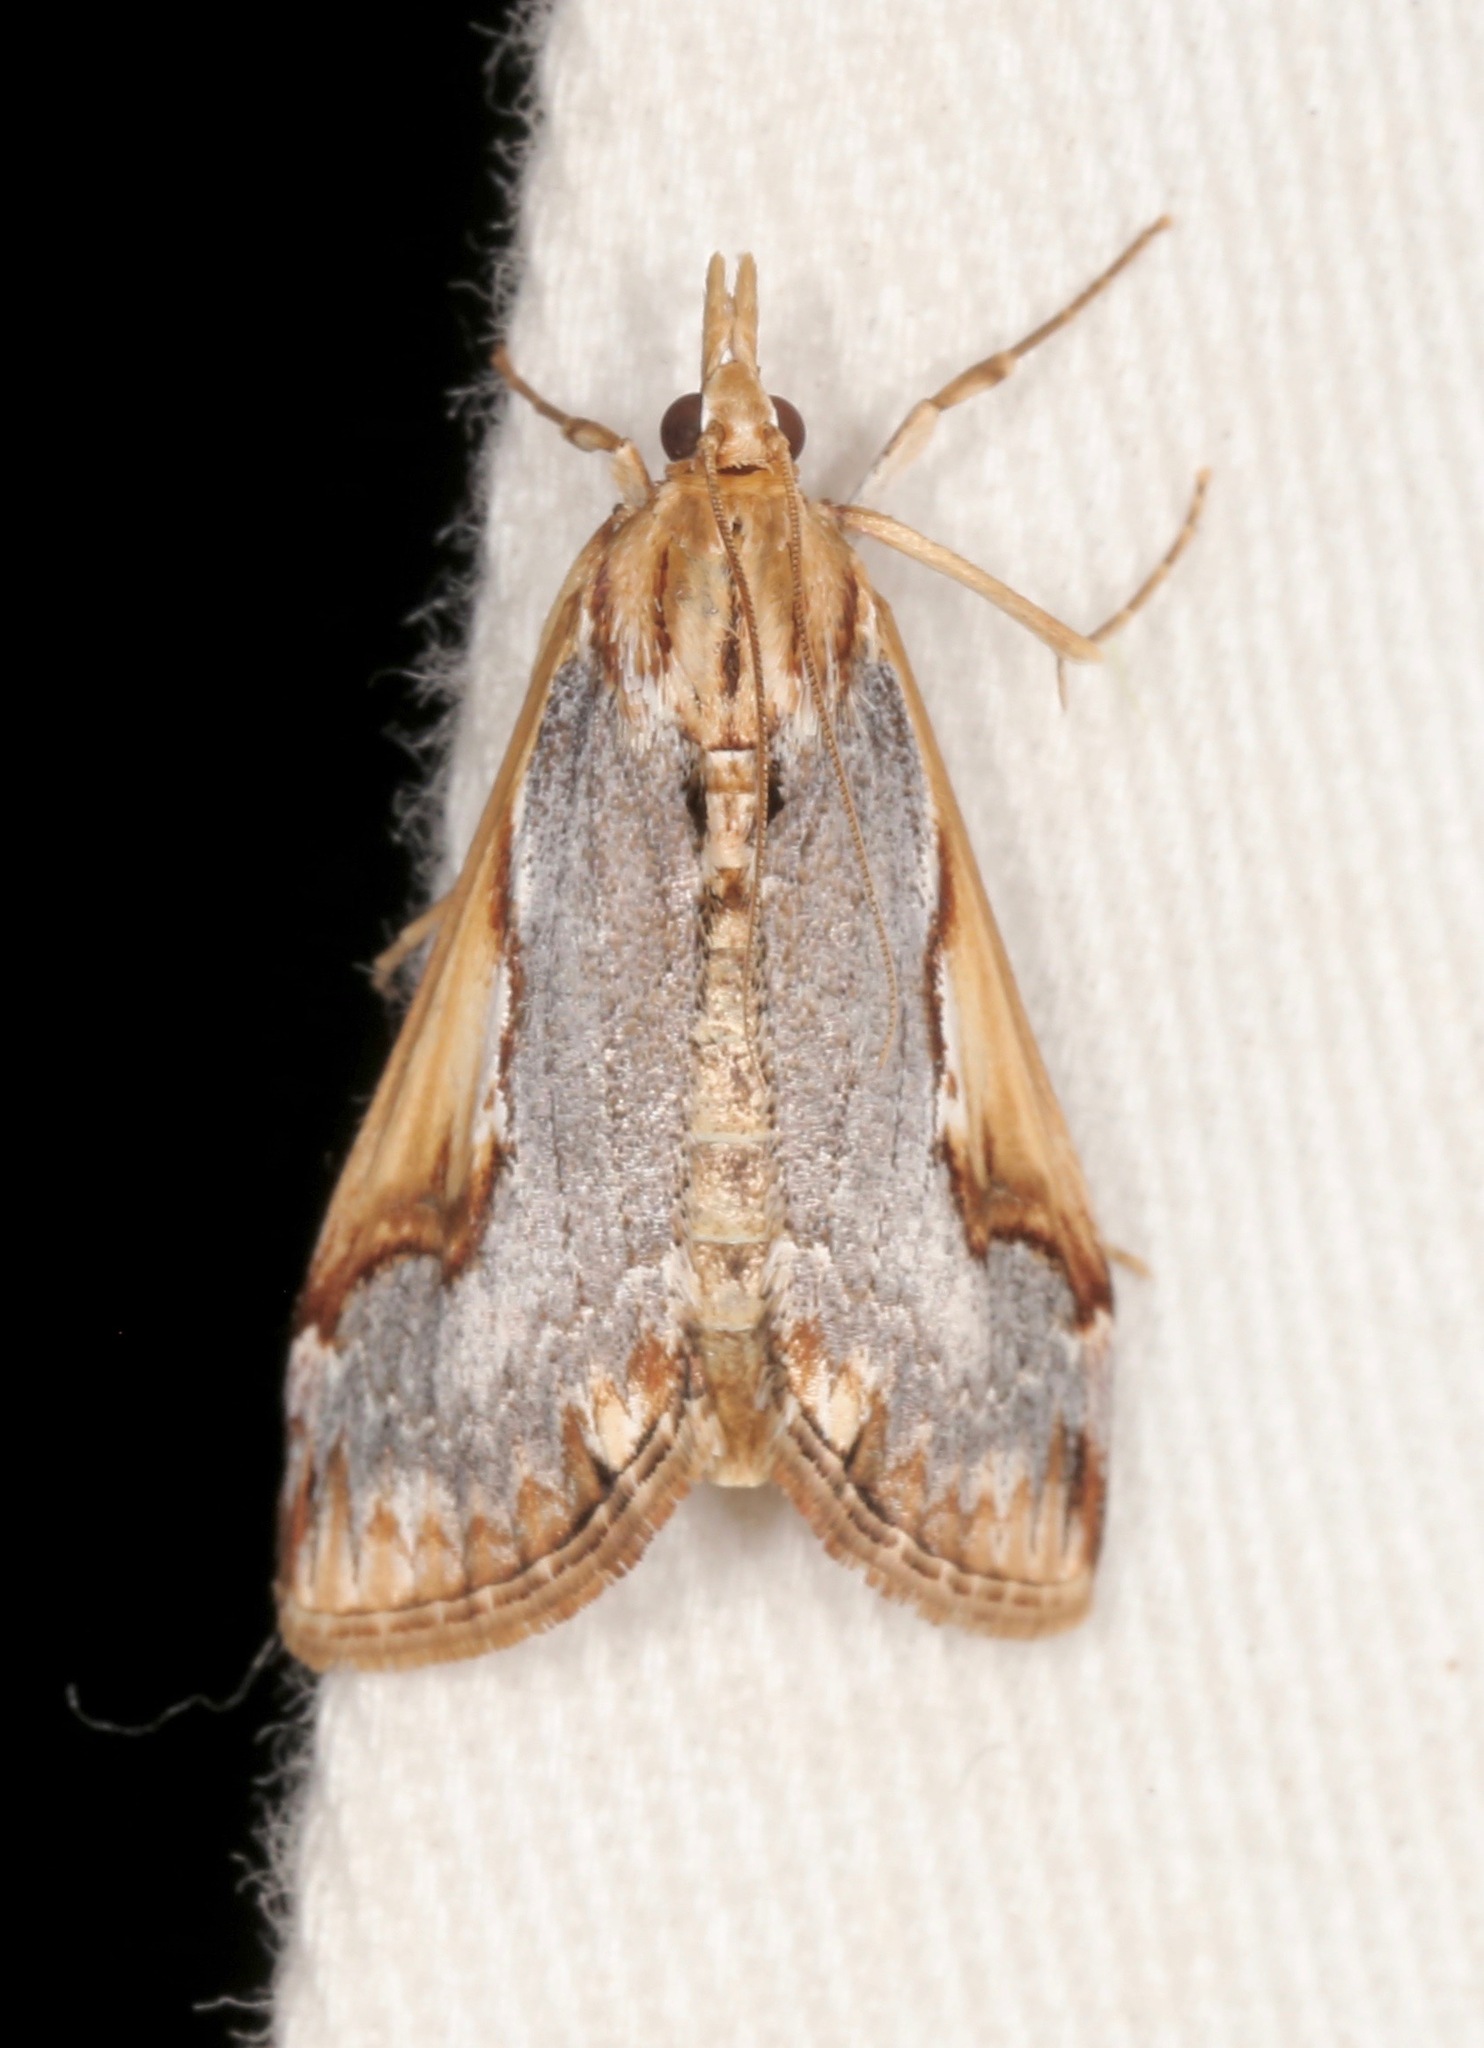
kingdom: Animalia
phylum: Arthropoda
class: Insecta
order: Lepidoptera
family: Crambidae
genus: Loxostege
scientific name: Loxostege albiceralis
